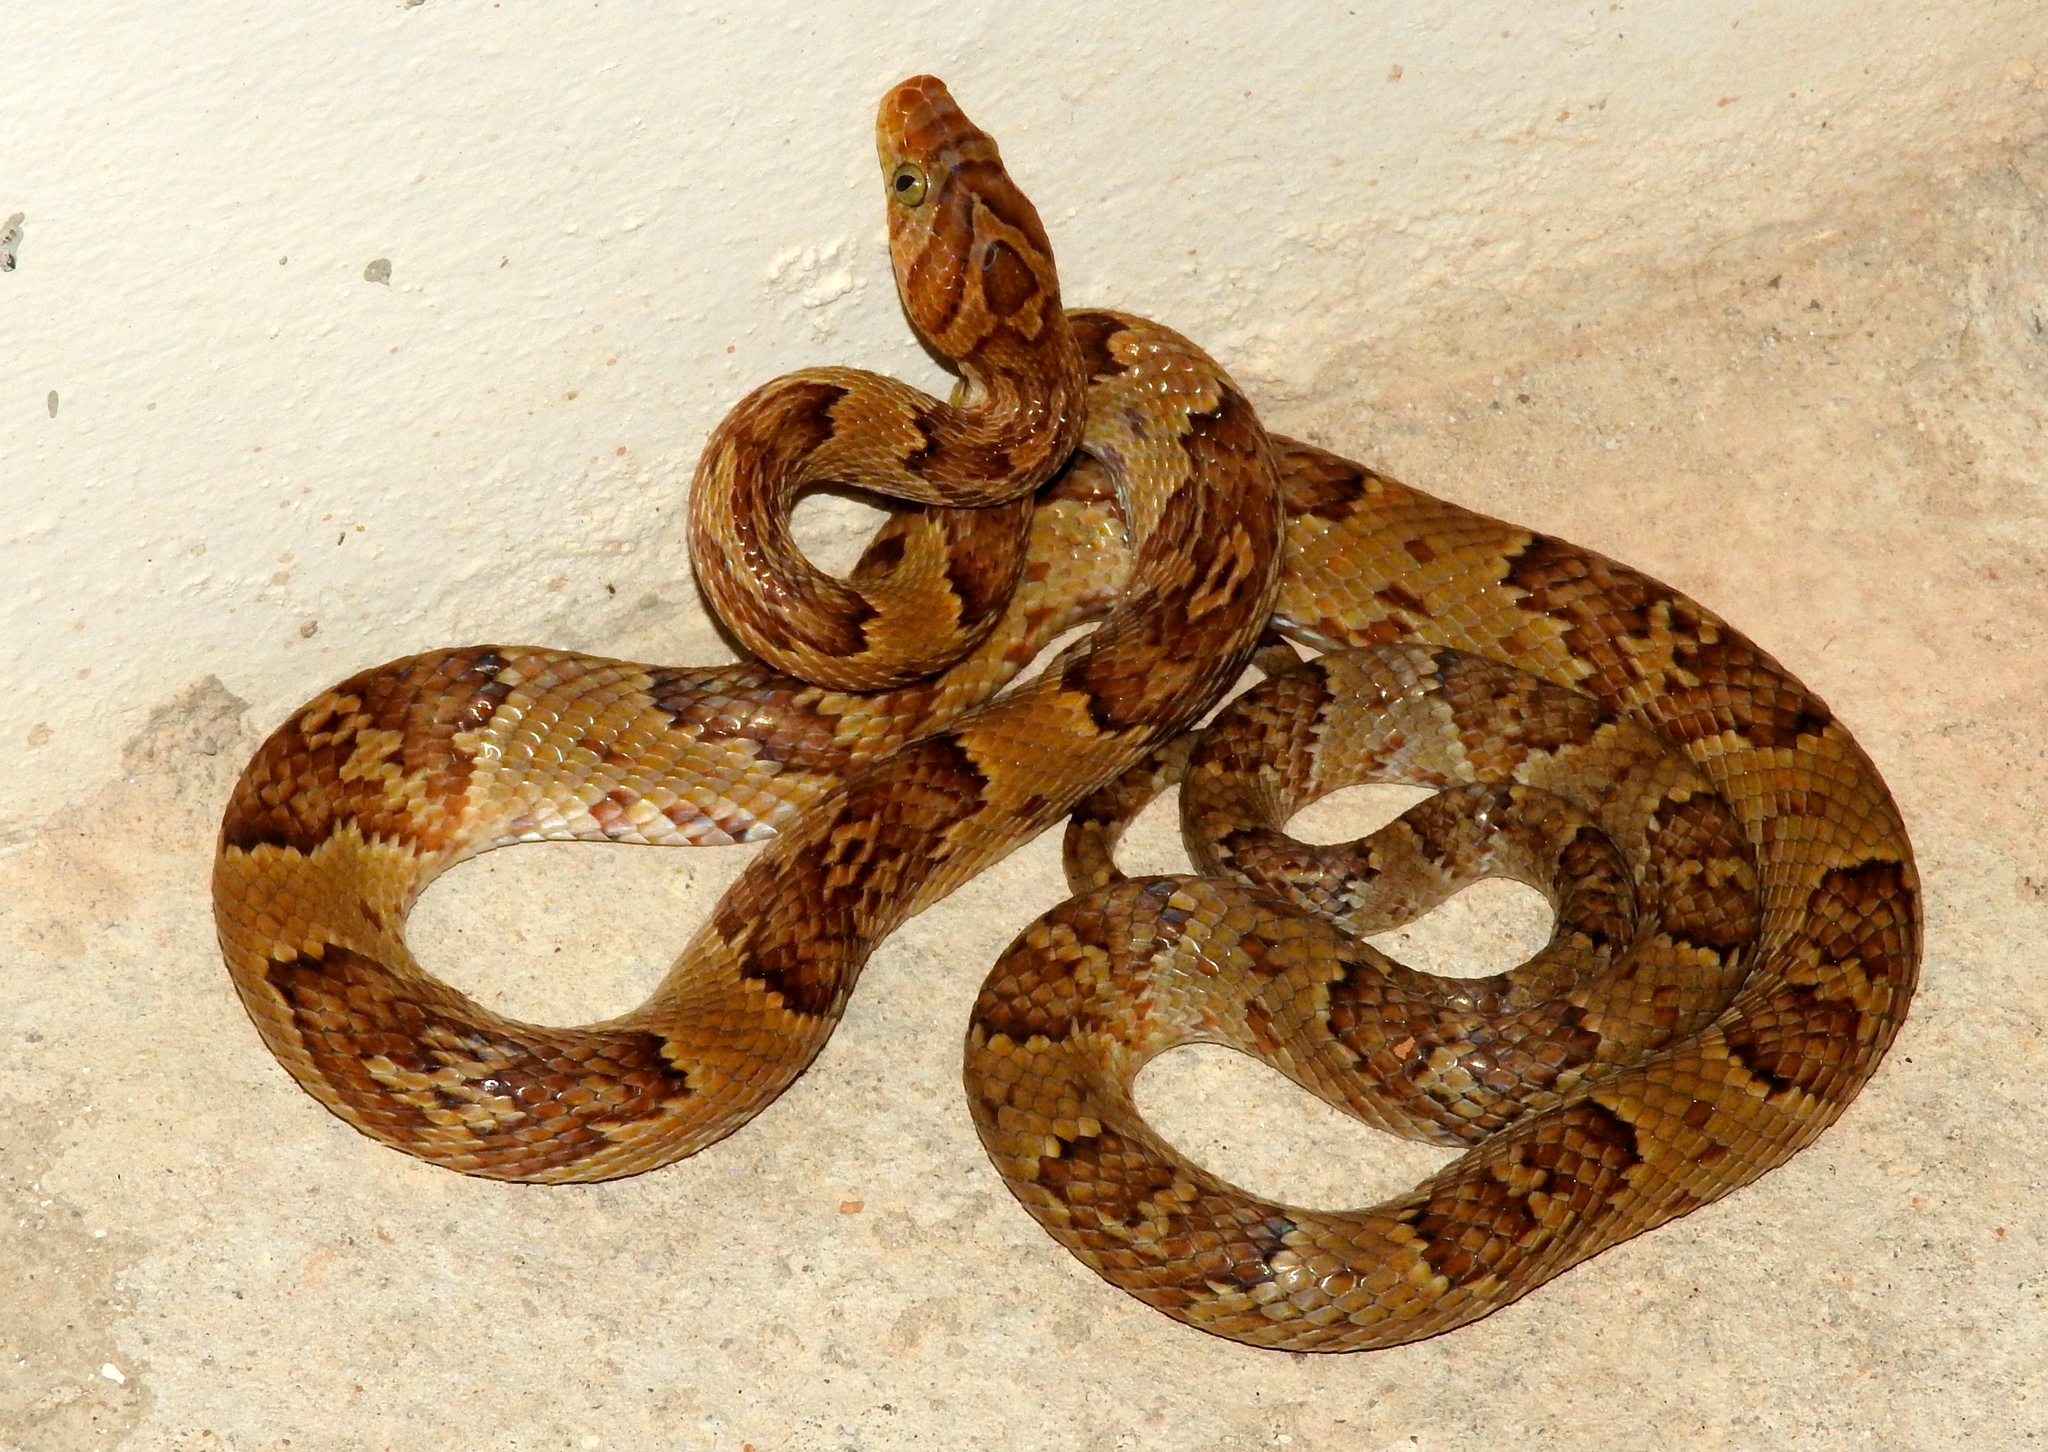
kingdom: Animalia
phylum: Chordata
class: Squamata
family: Colubridae
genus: Trimorphodon
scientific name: Trimorphodon paucimaculatus
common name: Sinaloan lyresnake
